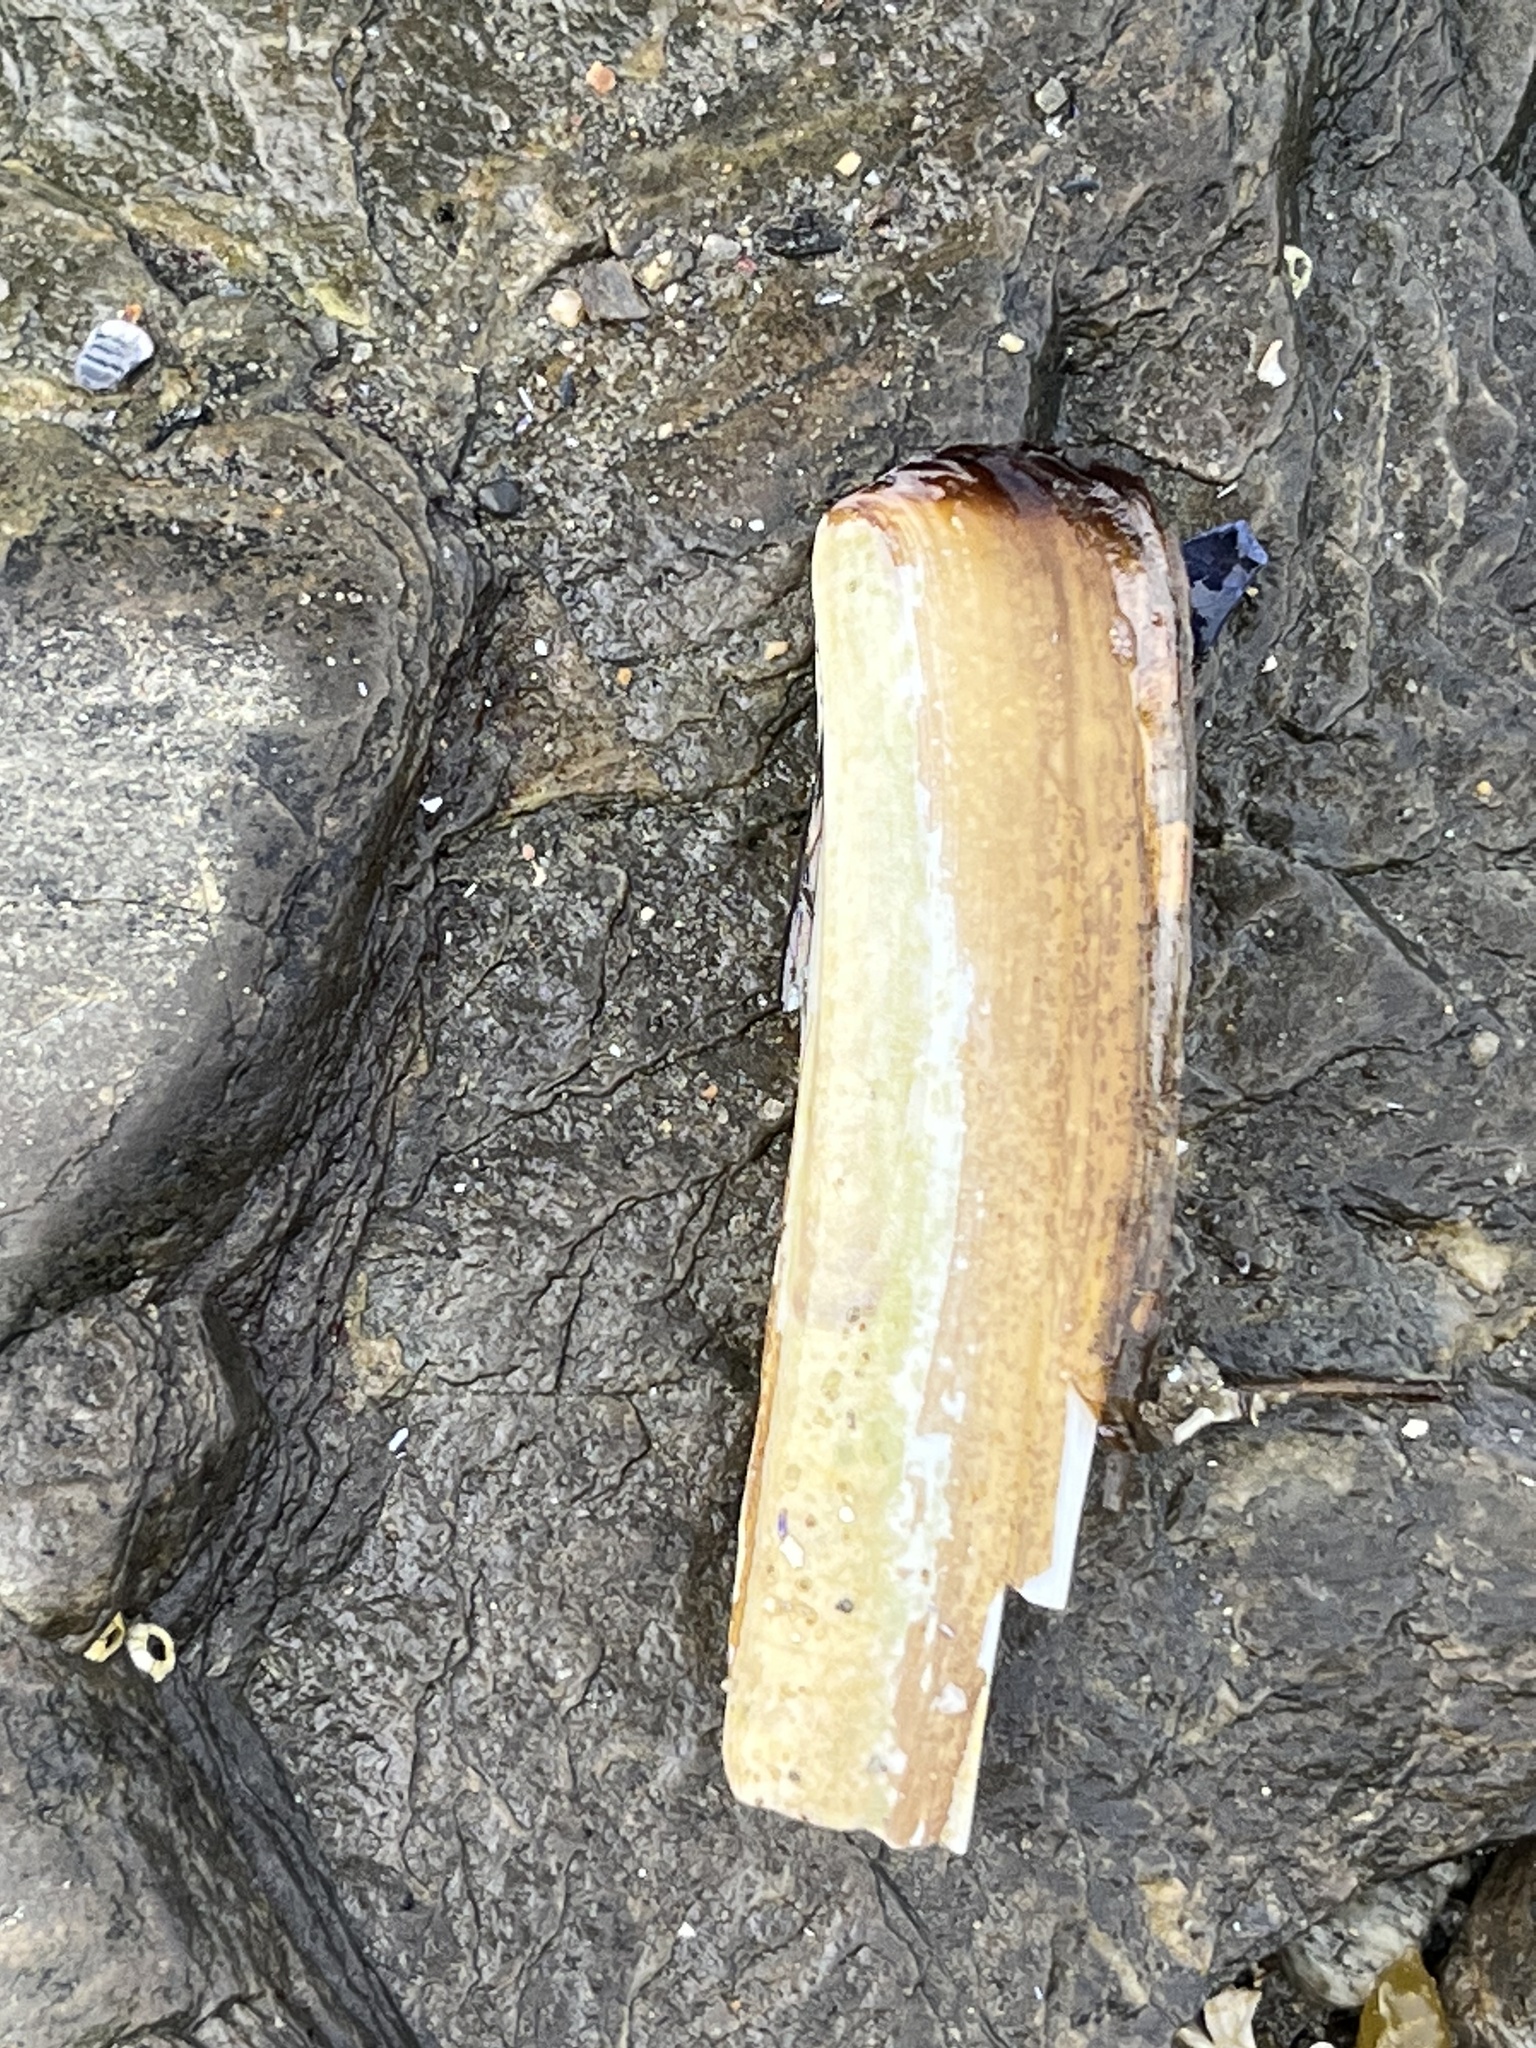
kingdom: Animalia
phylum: Mollusca
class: Bivalvia
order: Adapedonta
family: Pharidae
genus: Ensis
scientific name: Ensis leei
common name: American jack knife clam
